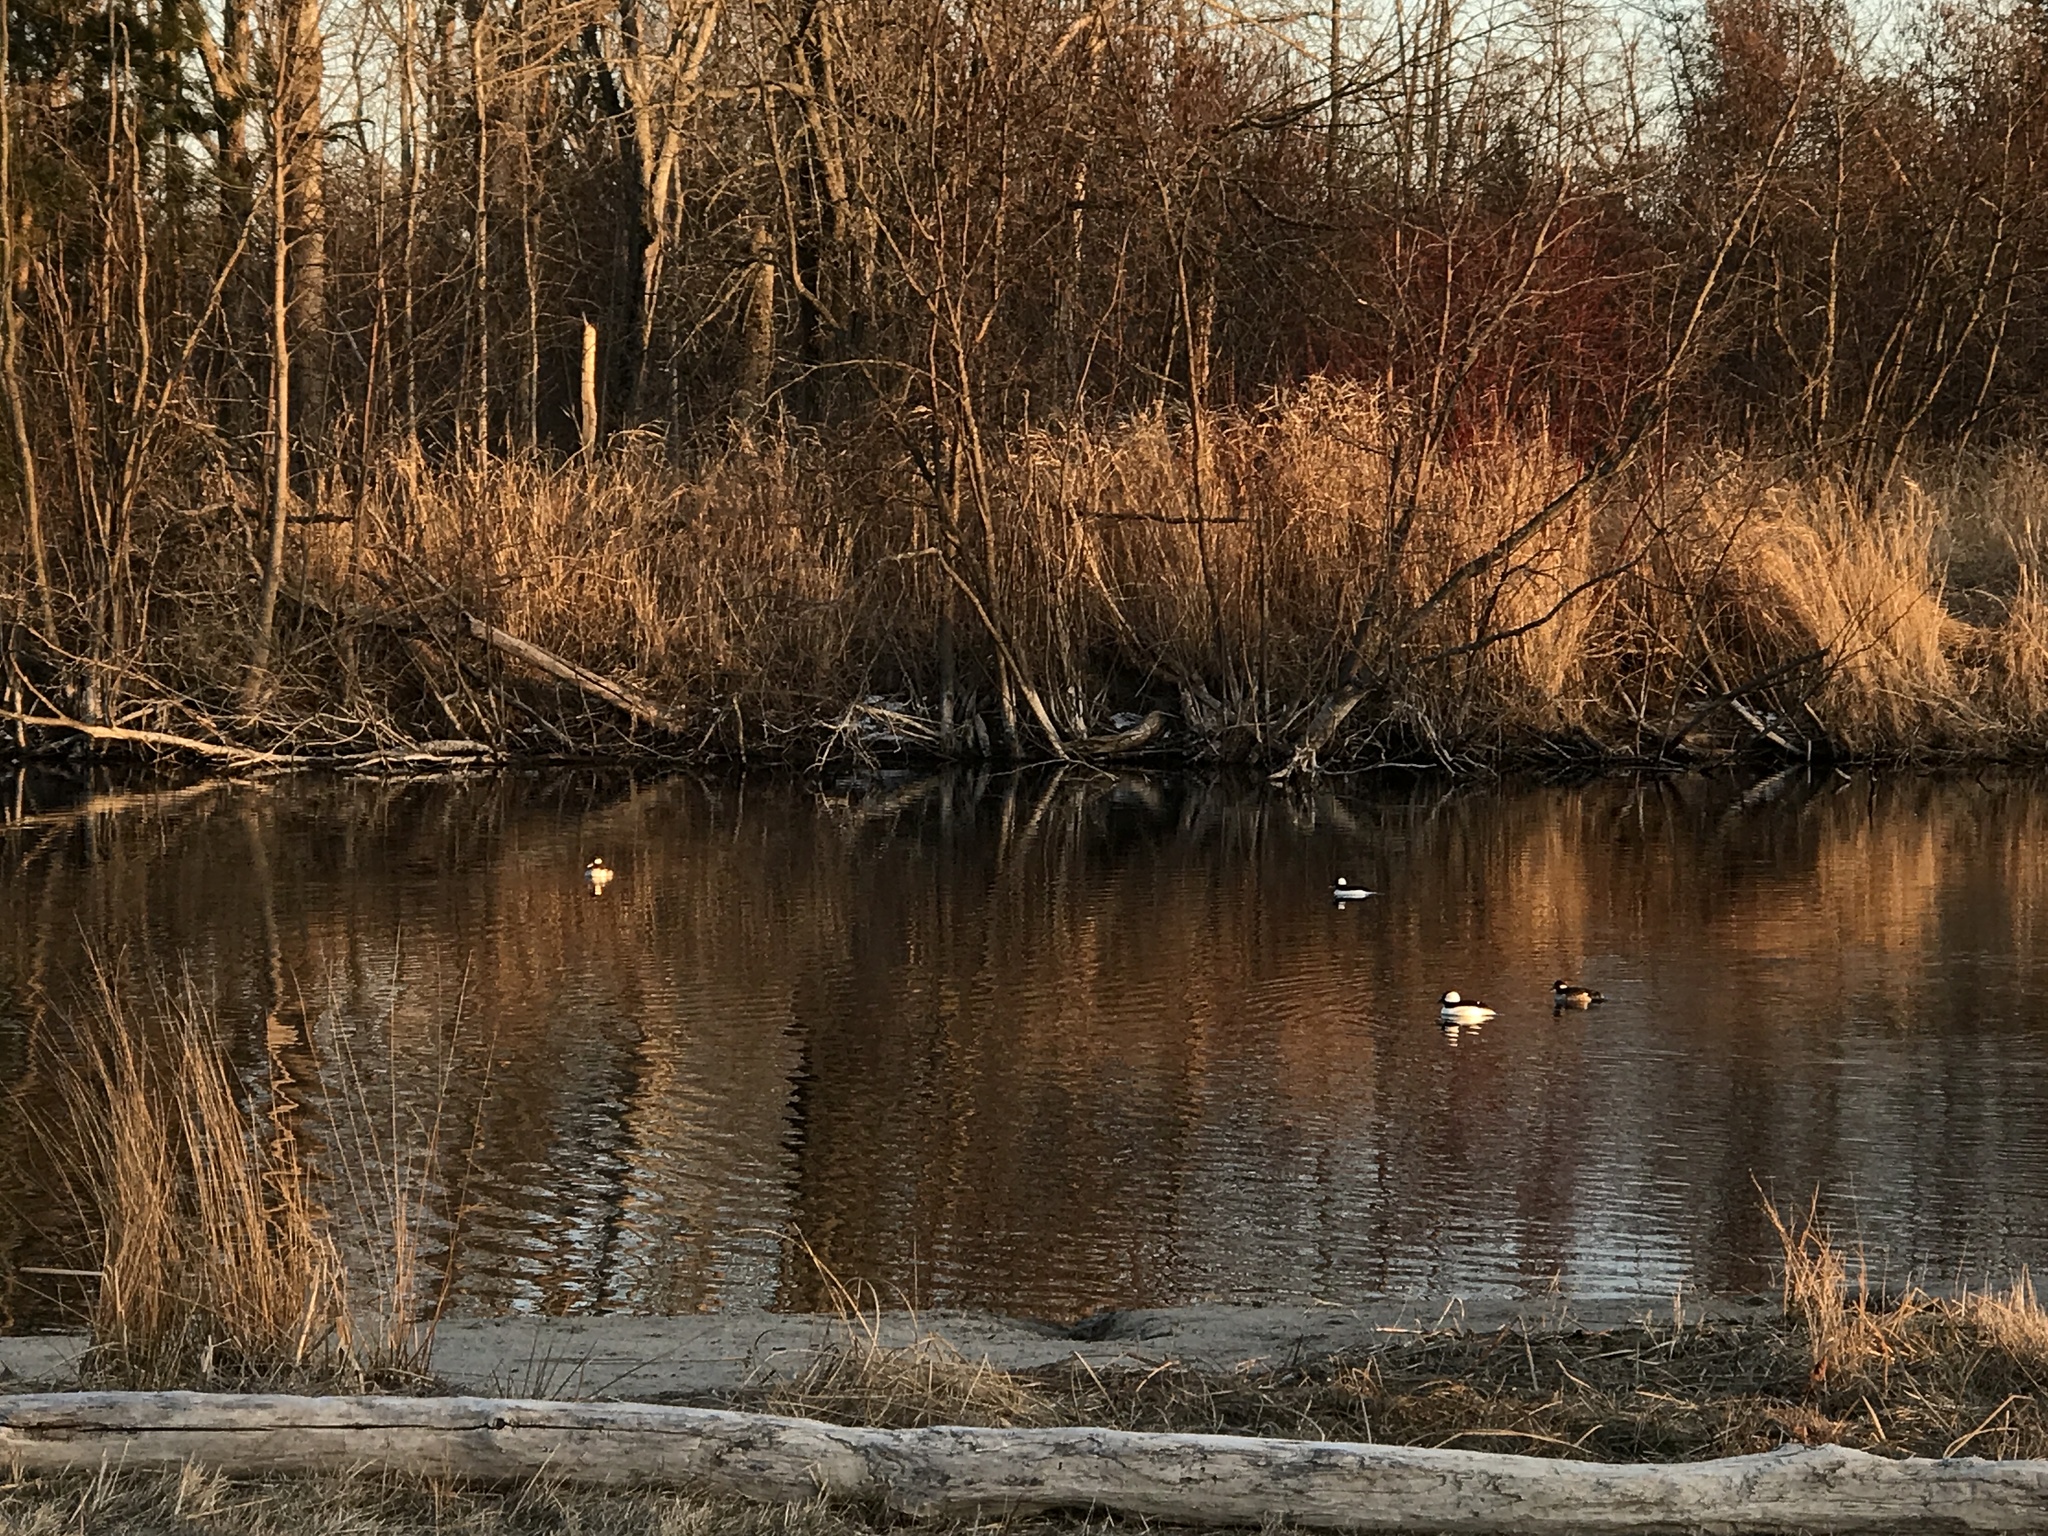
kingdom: Animalia
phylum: Chordata
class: Aves
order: Anseriformes
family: Anatidae
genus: Bucephala
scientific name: Bucephala albeola
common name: Bufflehead
